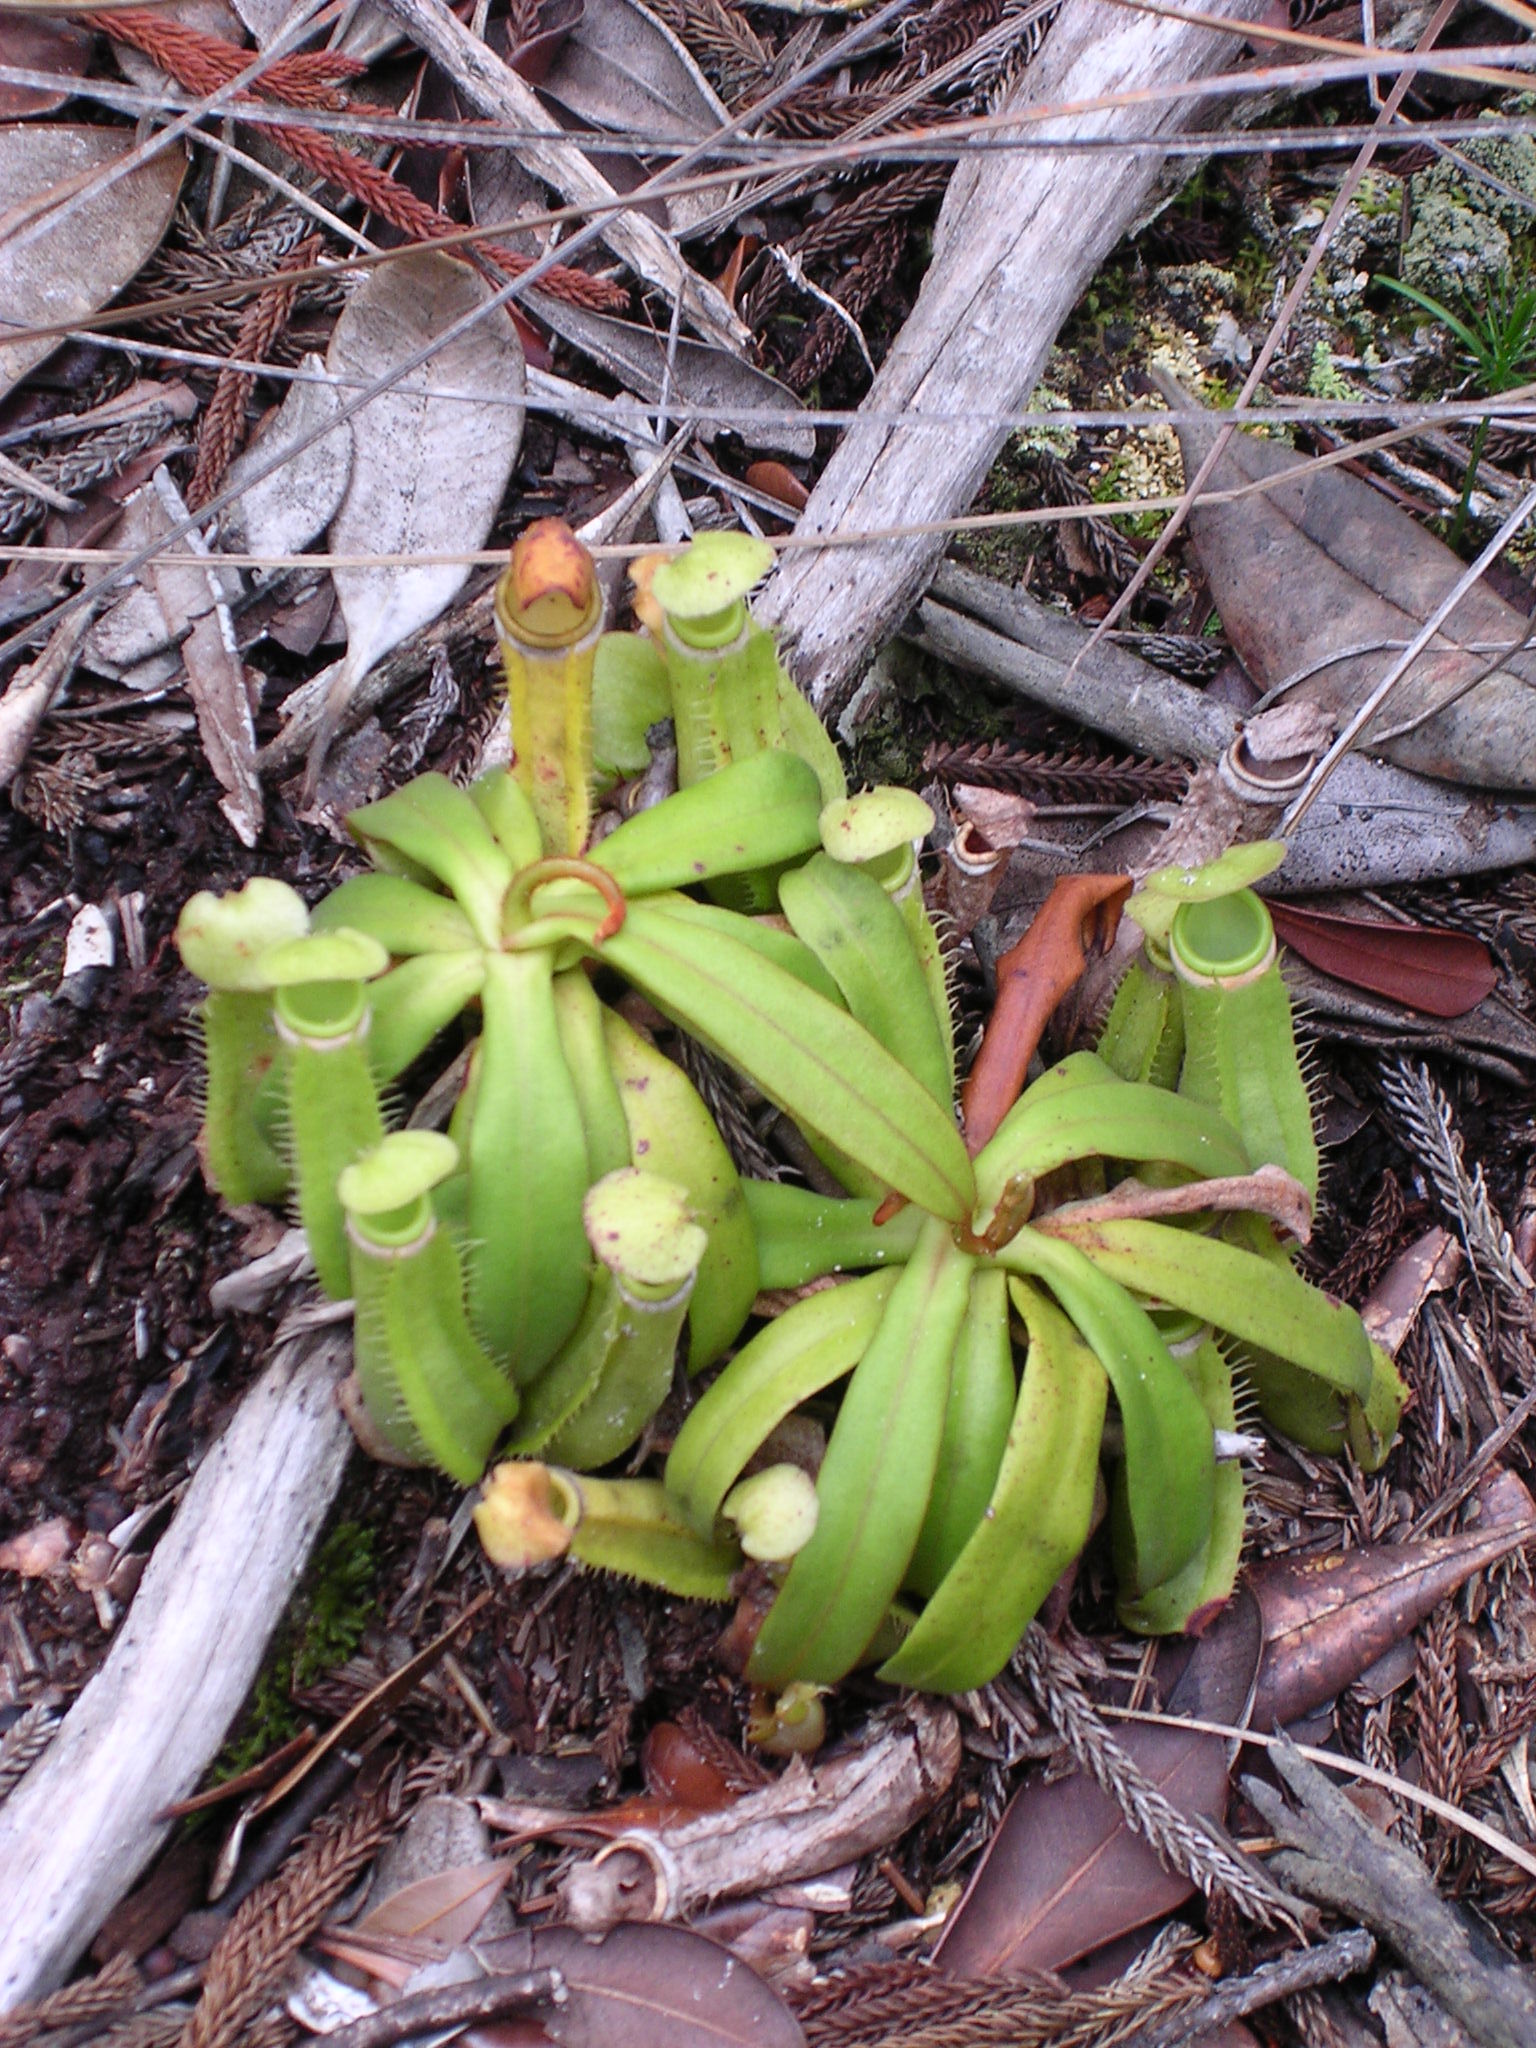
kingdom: Plantae
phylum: Tracheophyta
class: Magnoliopsida
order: Caryophyllales
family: Nepenthaceae
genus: Nepenthes
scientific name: Nepenthes albomarginata
